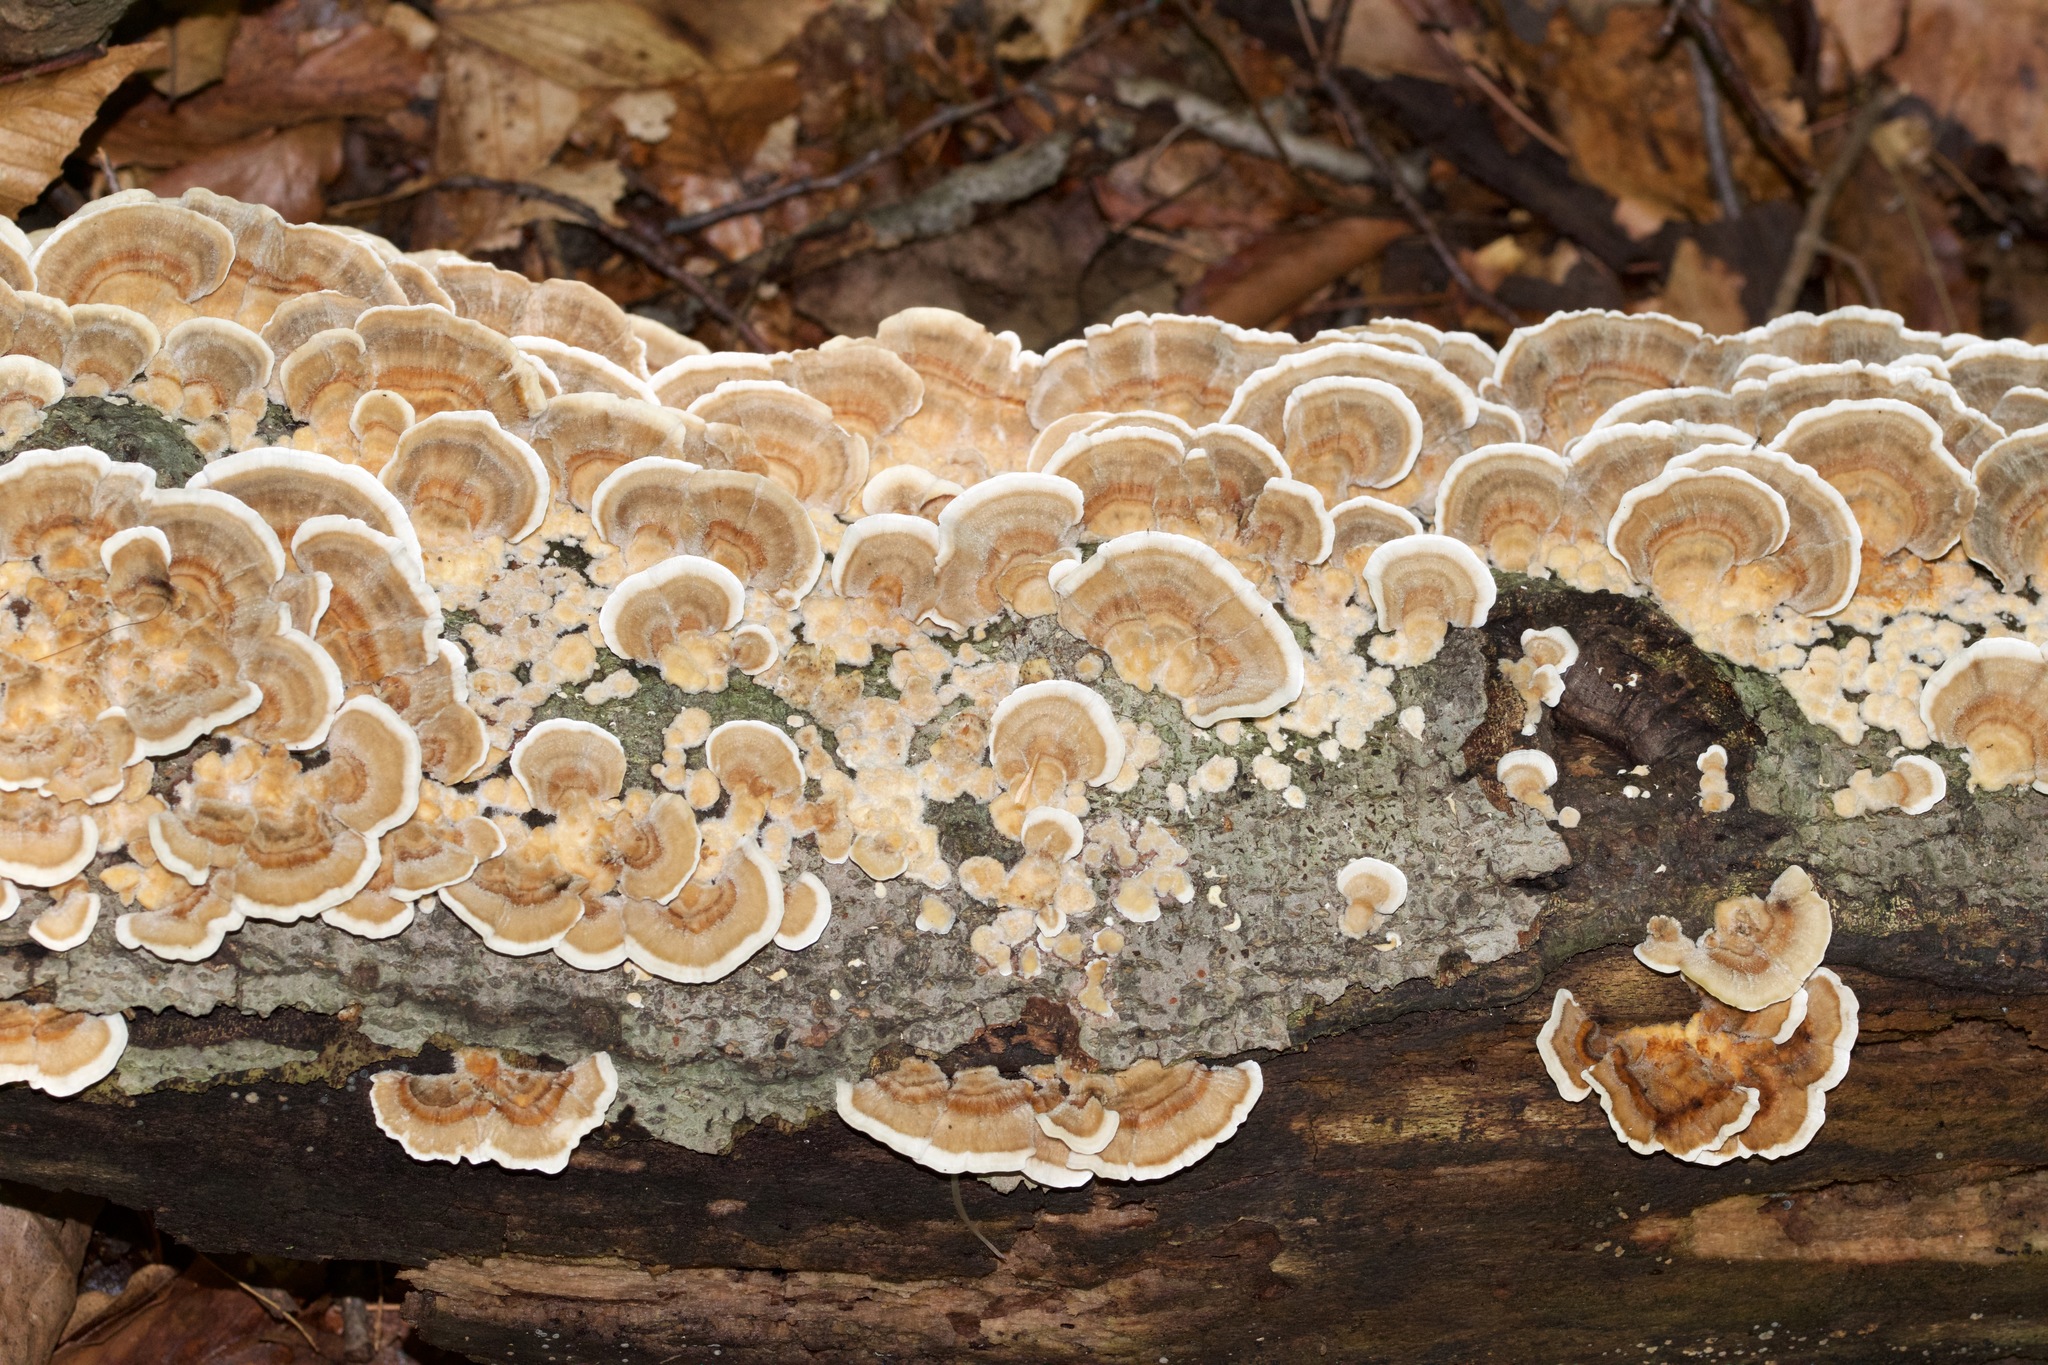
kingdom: Fungi
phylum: Basidiomycota
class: Agaricomycetes
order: Polyporales
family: Polyporaceae
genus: Trametes
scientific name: Trametes versicolor
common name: Turkeytail
